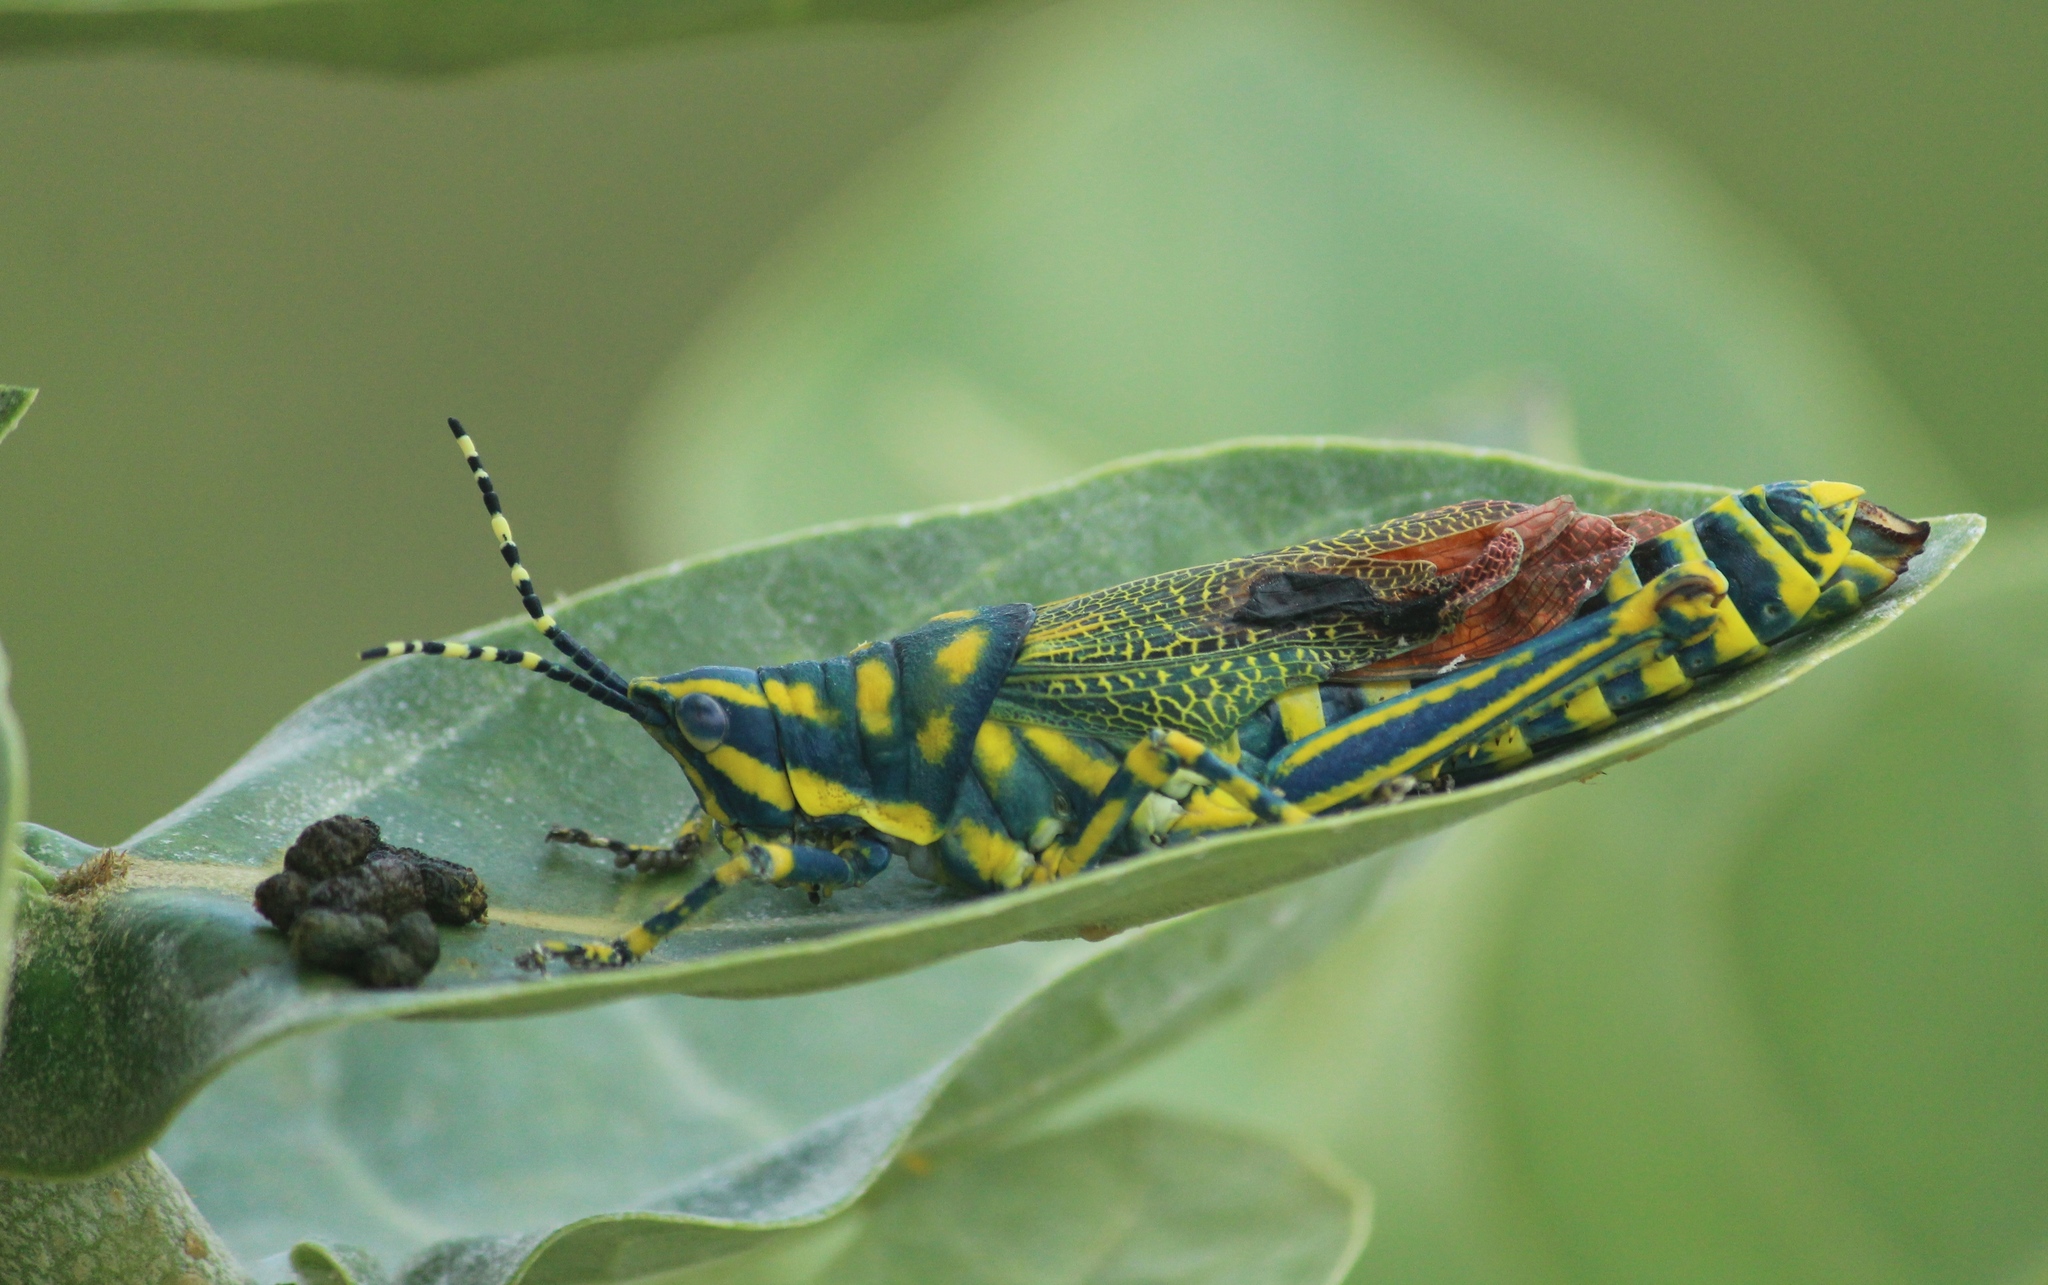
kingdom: Animalia
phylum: Arthropoda
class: Insecta
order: Orthoptera
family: Pyrgomorphidae
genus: Poekilocerus
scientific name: Poekilocerus pictus
